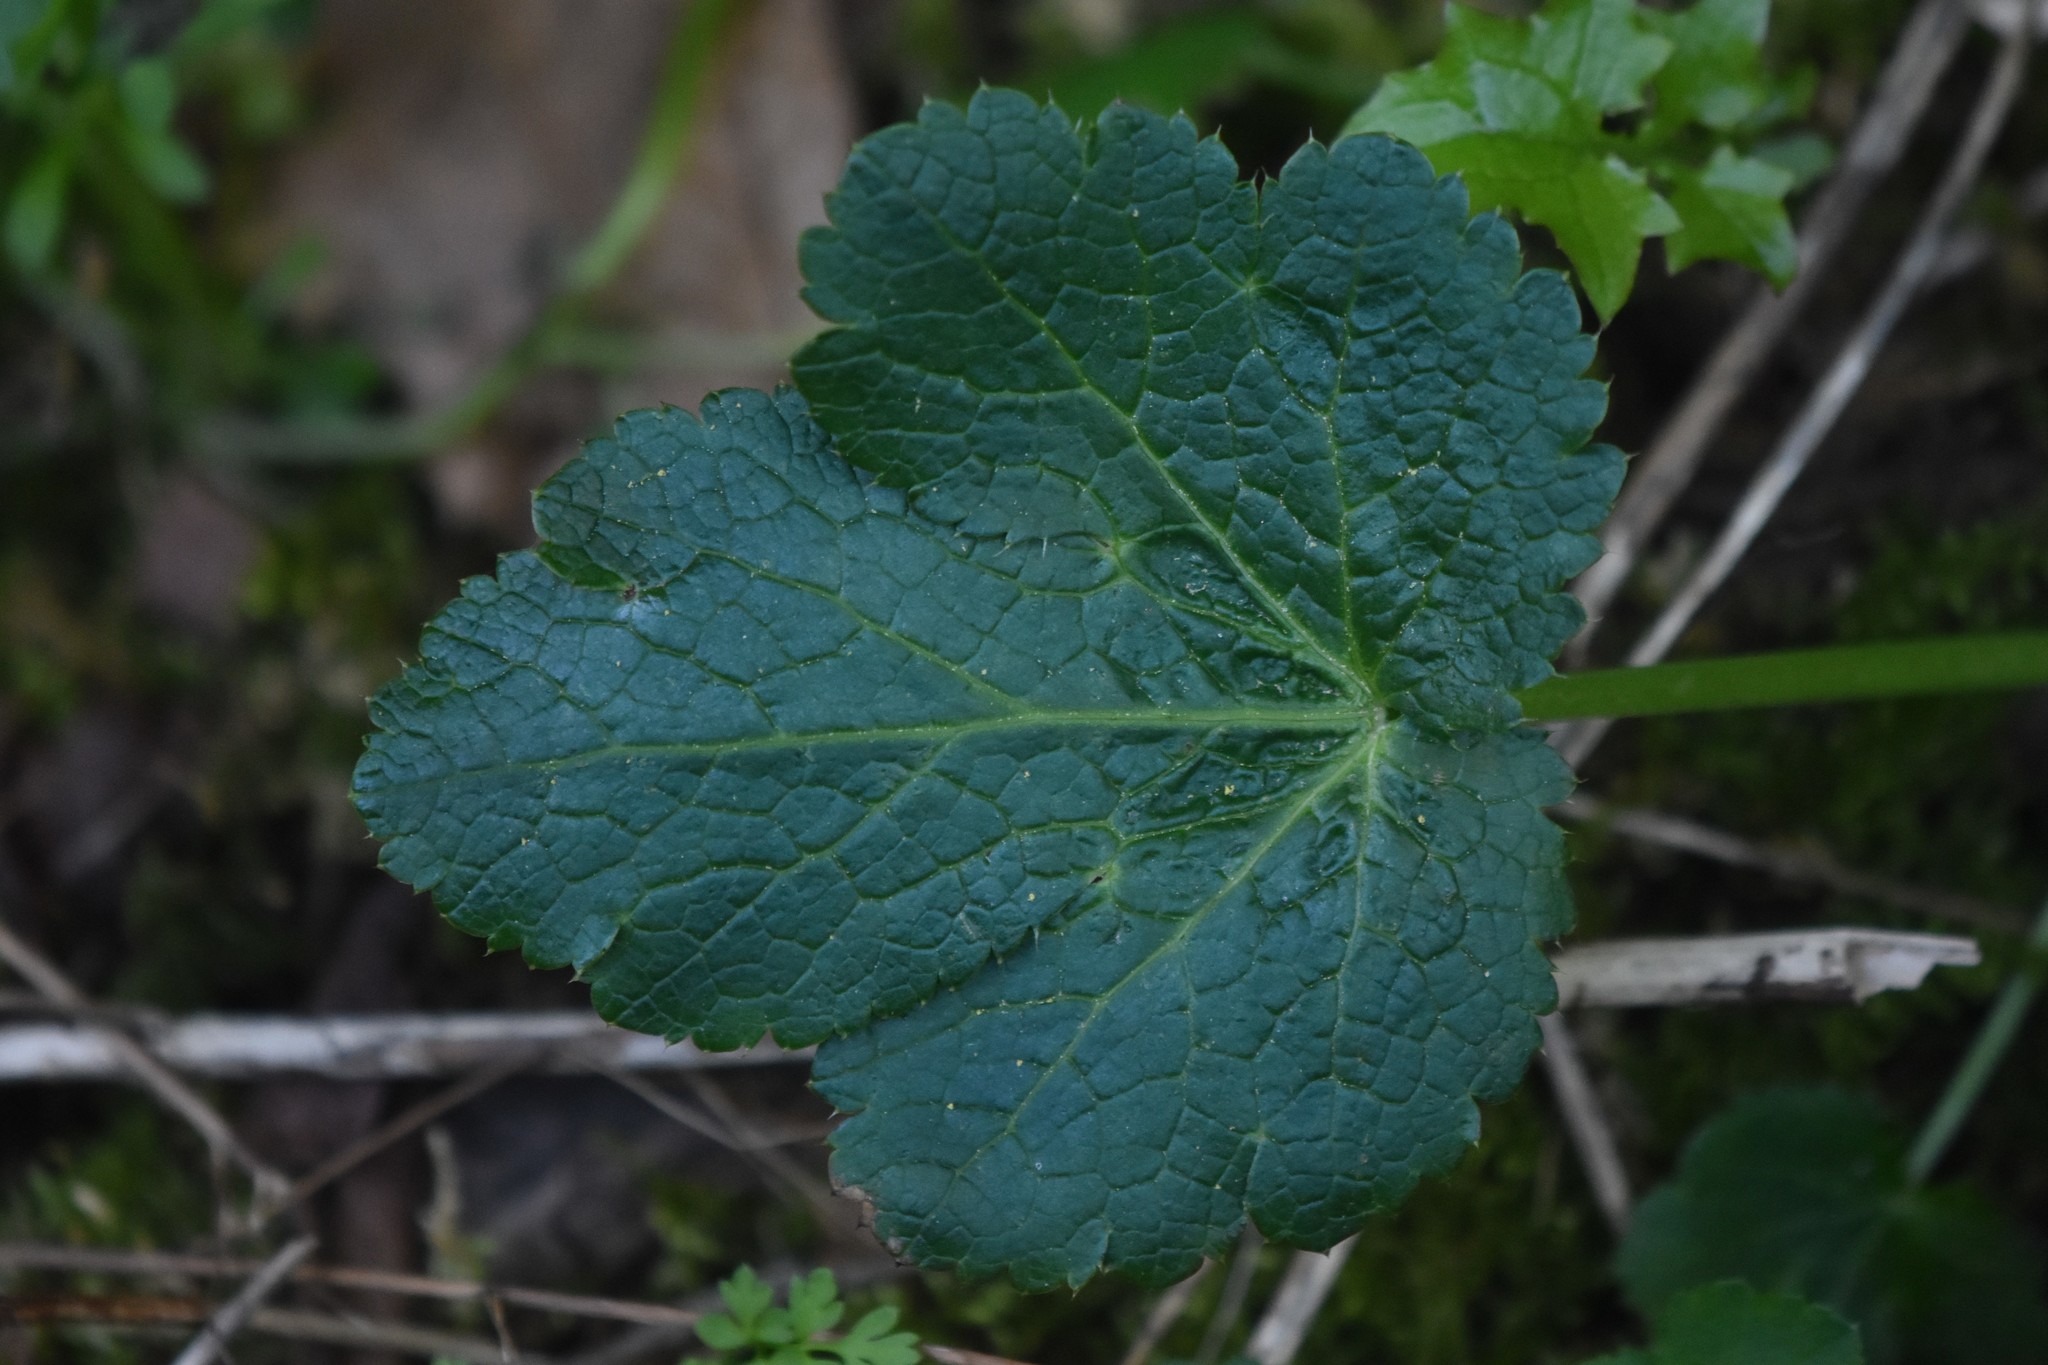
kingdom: Plantae
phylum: Tracheophyta
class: Magnoliopsida
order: Apiales
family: Apiaceae
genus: Sanicula
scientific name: Sanicula crassicaulis
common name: Western snakeroot
